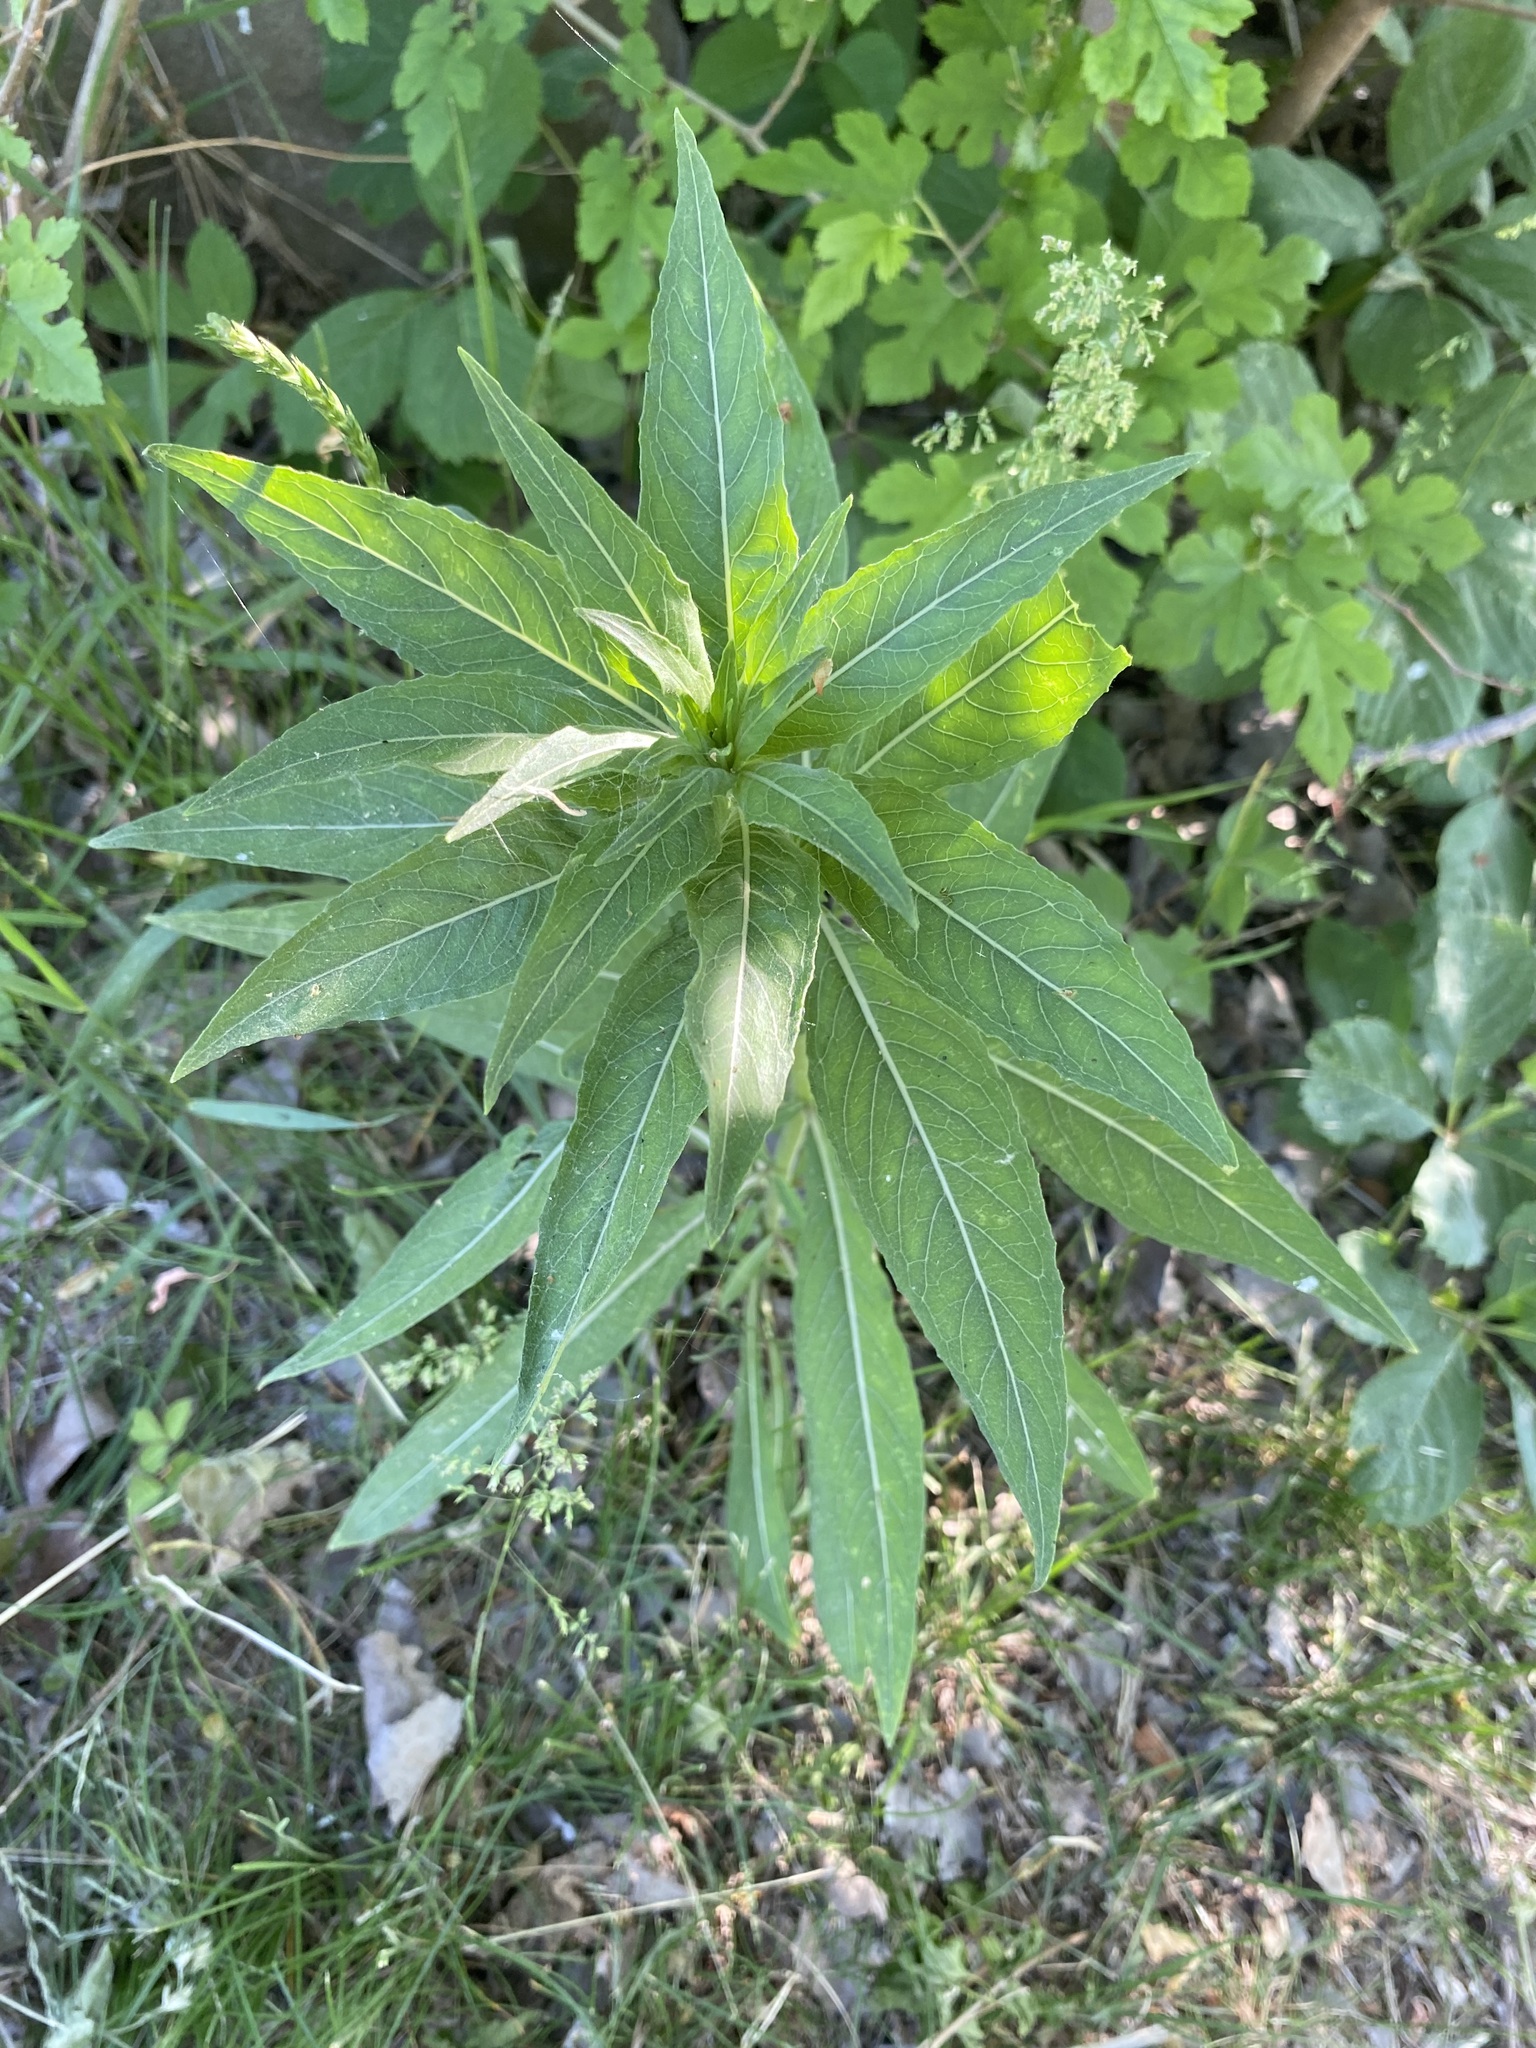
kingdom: Plantae
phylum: Tracheophyta
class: Magnoliopsida
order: Myrtales
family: Onagraceae
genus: Oenothera
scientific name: Oenothera biennis
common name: Common evening-primrose
